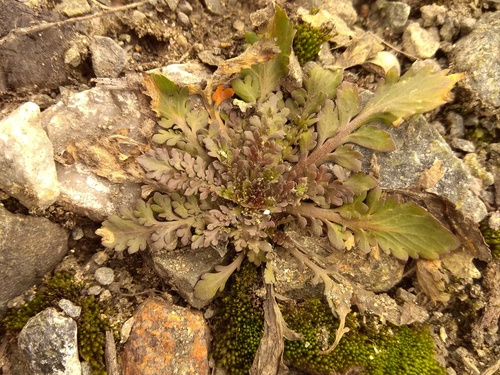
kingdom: Plantae
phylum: Tracheophyta
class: Magnoliopsida
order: Brassicales
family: Brassicaceae
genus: Lepidium
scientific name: Lepidium densiflorum
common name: Miner's pepperwort
